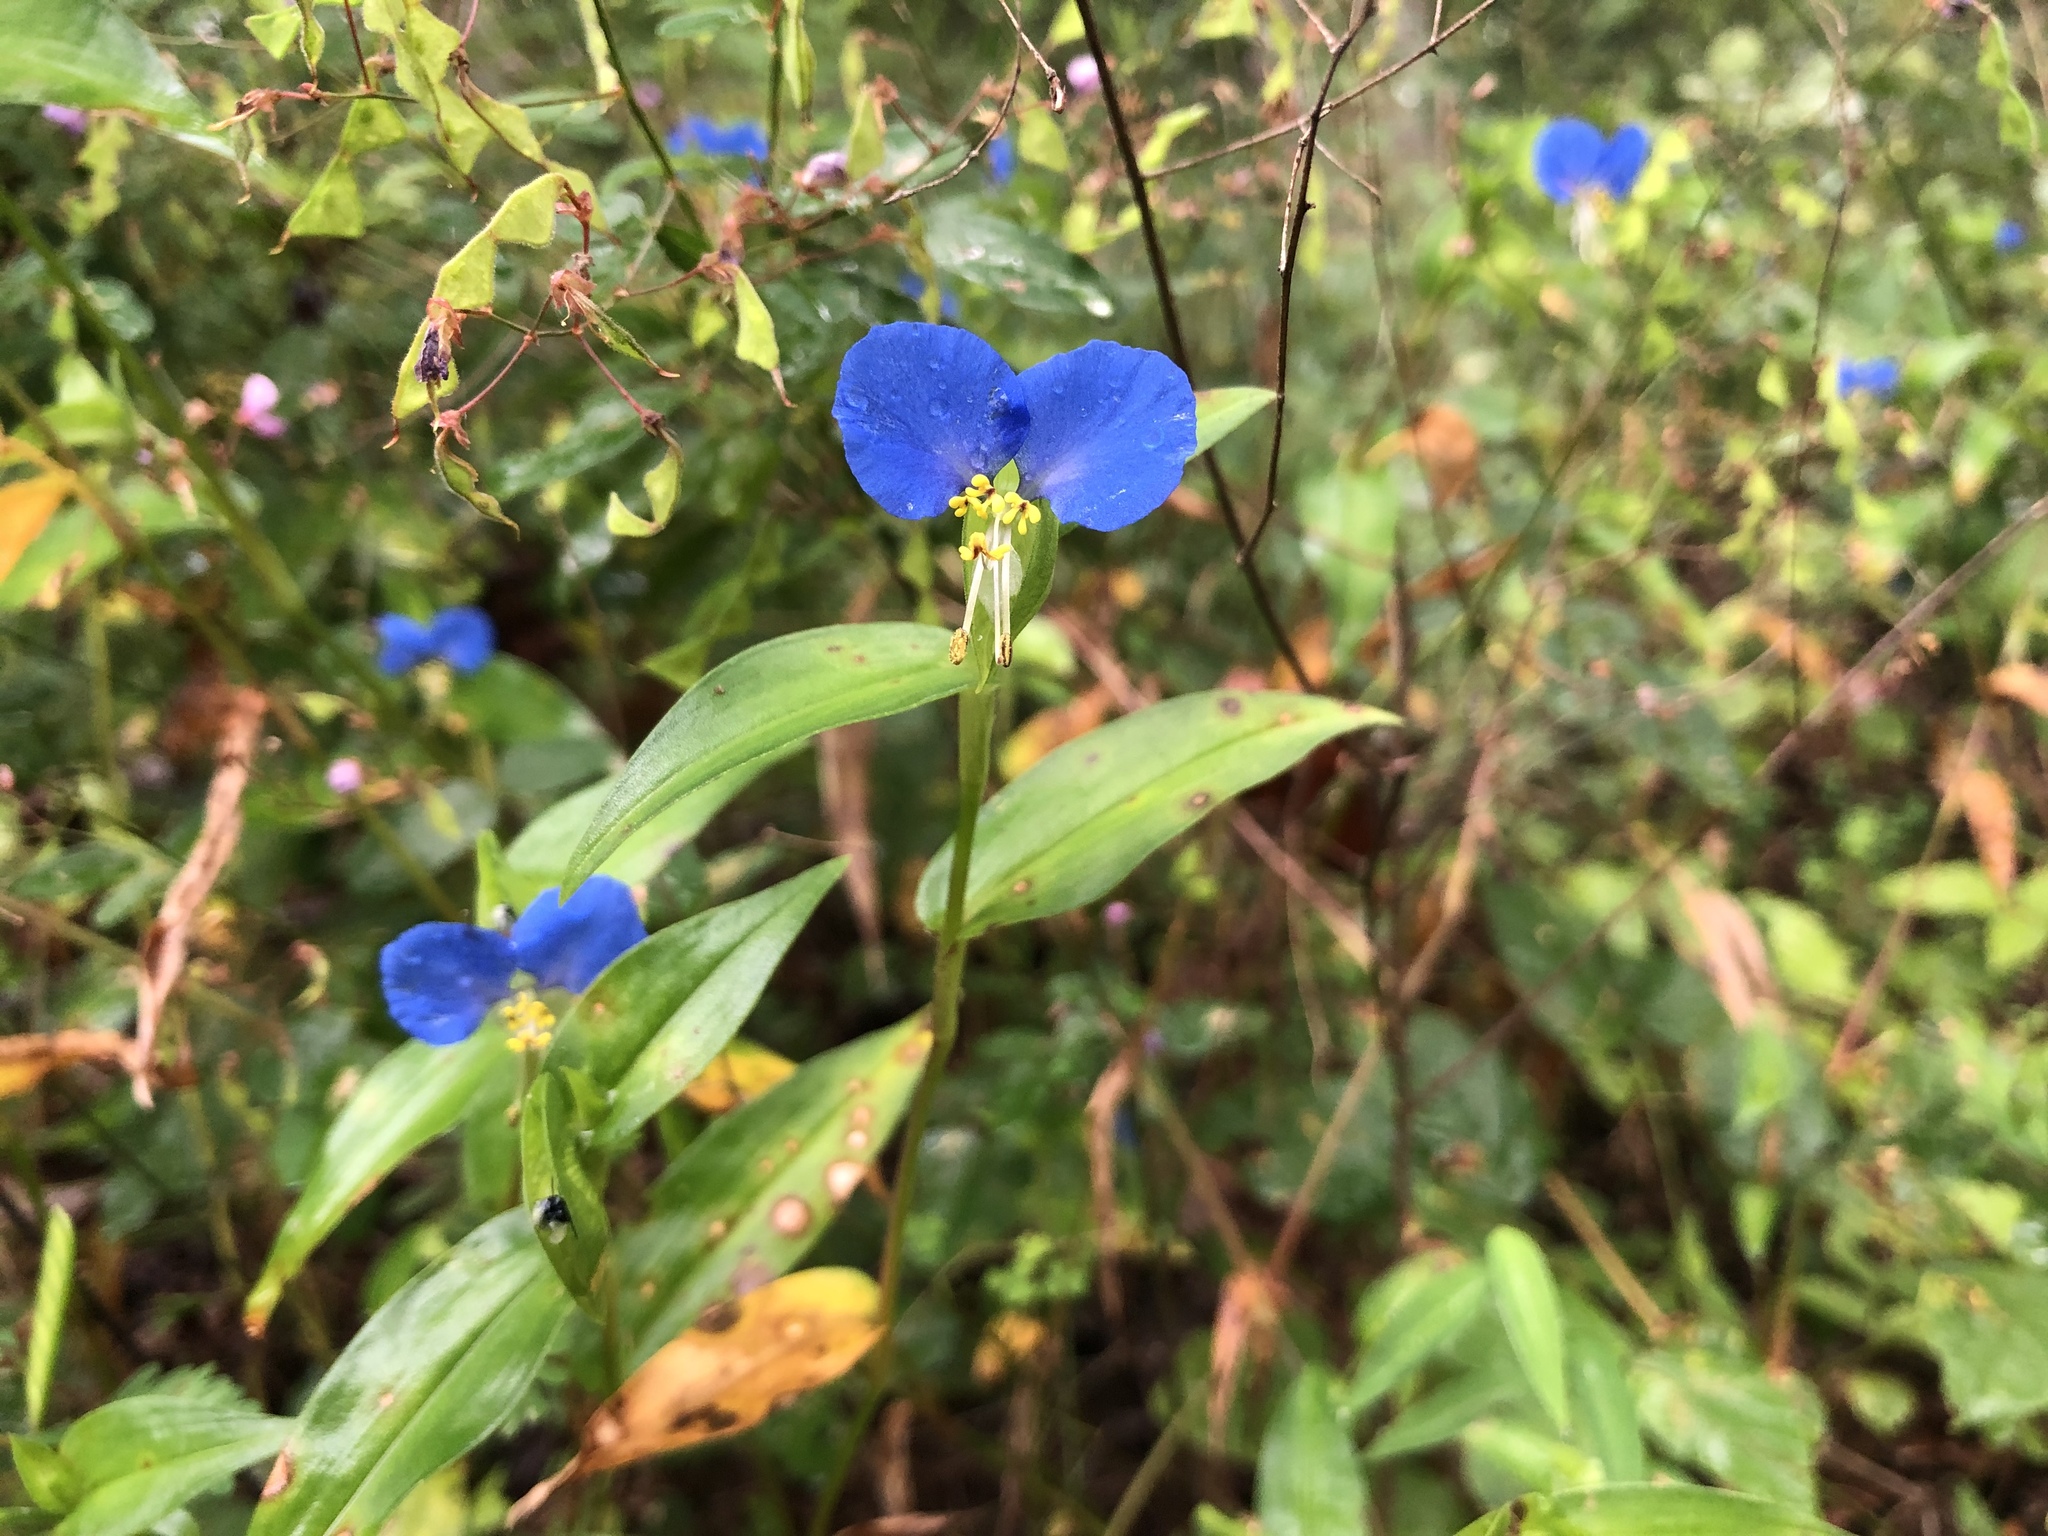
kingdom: Plantae
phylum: Tracheophyta
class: Liliopsida
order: Commelinales
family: Commelinaceae
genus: Commelina
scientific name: Commelina communis
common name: Asiatic dayflower
